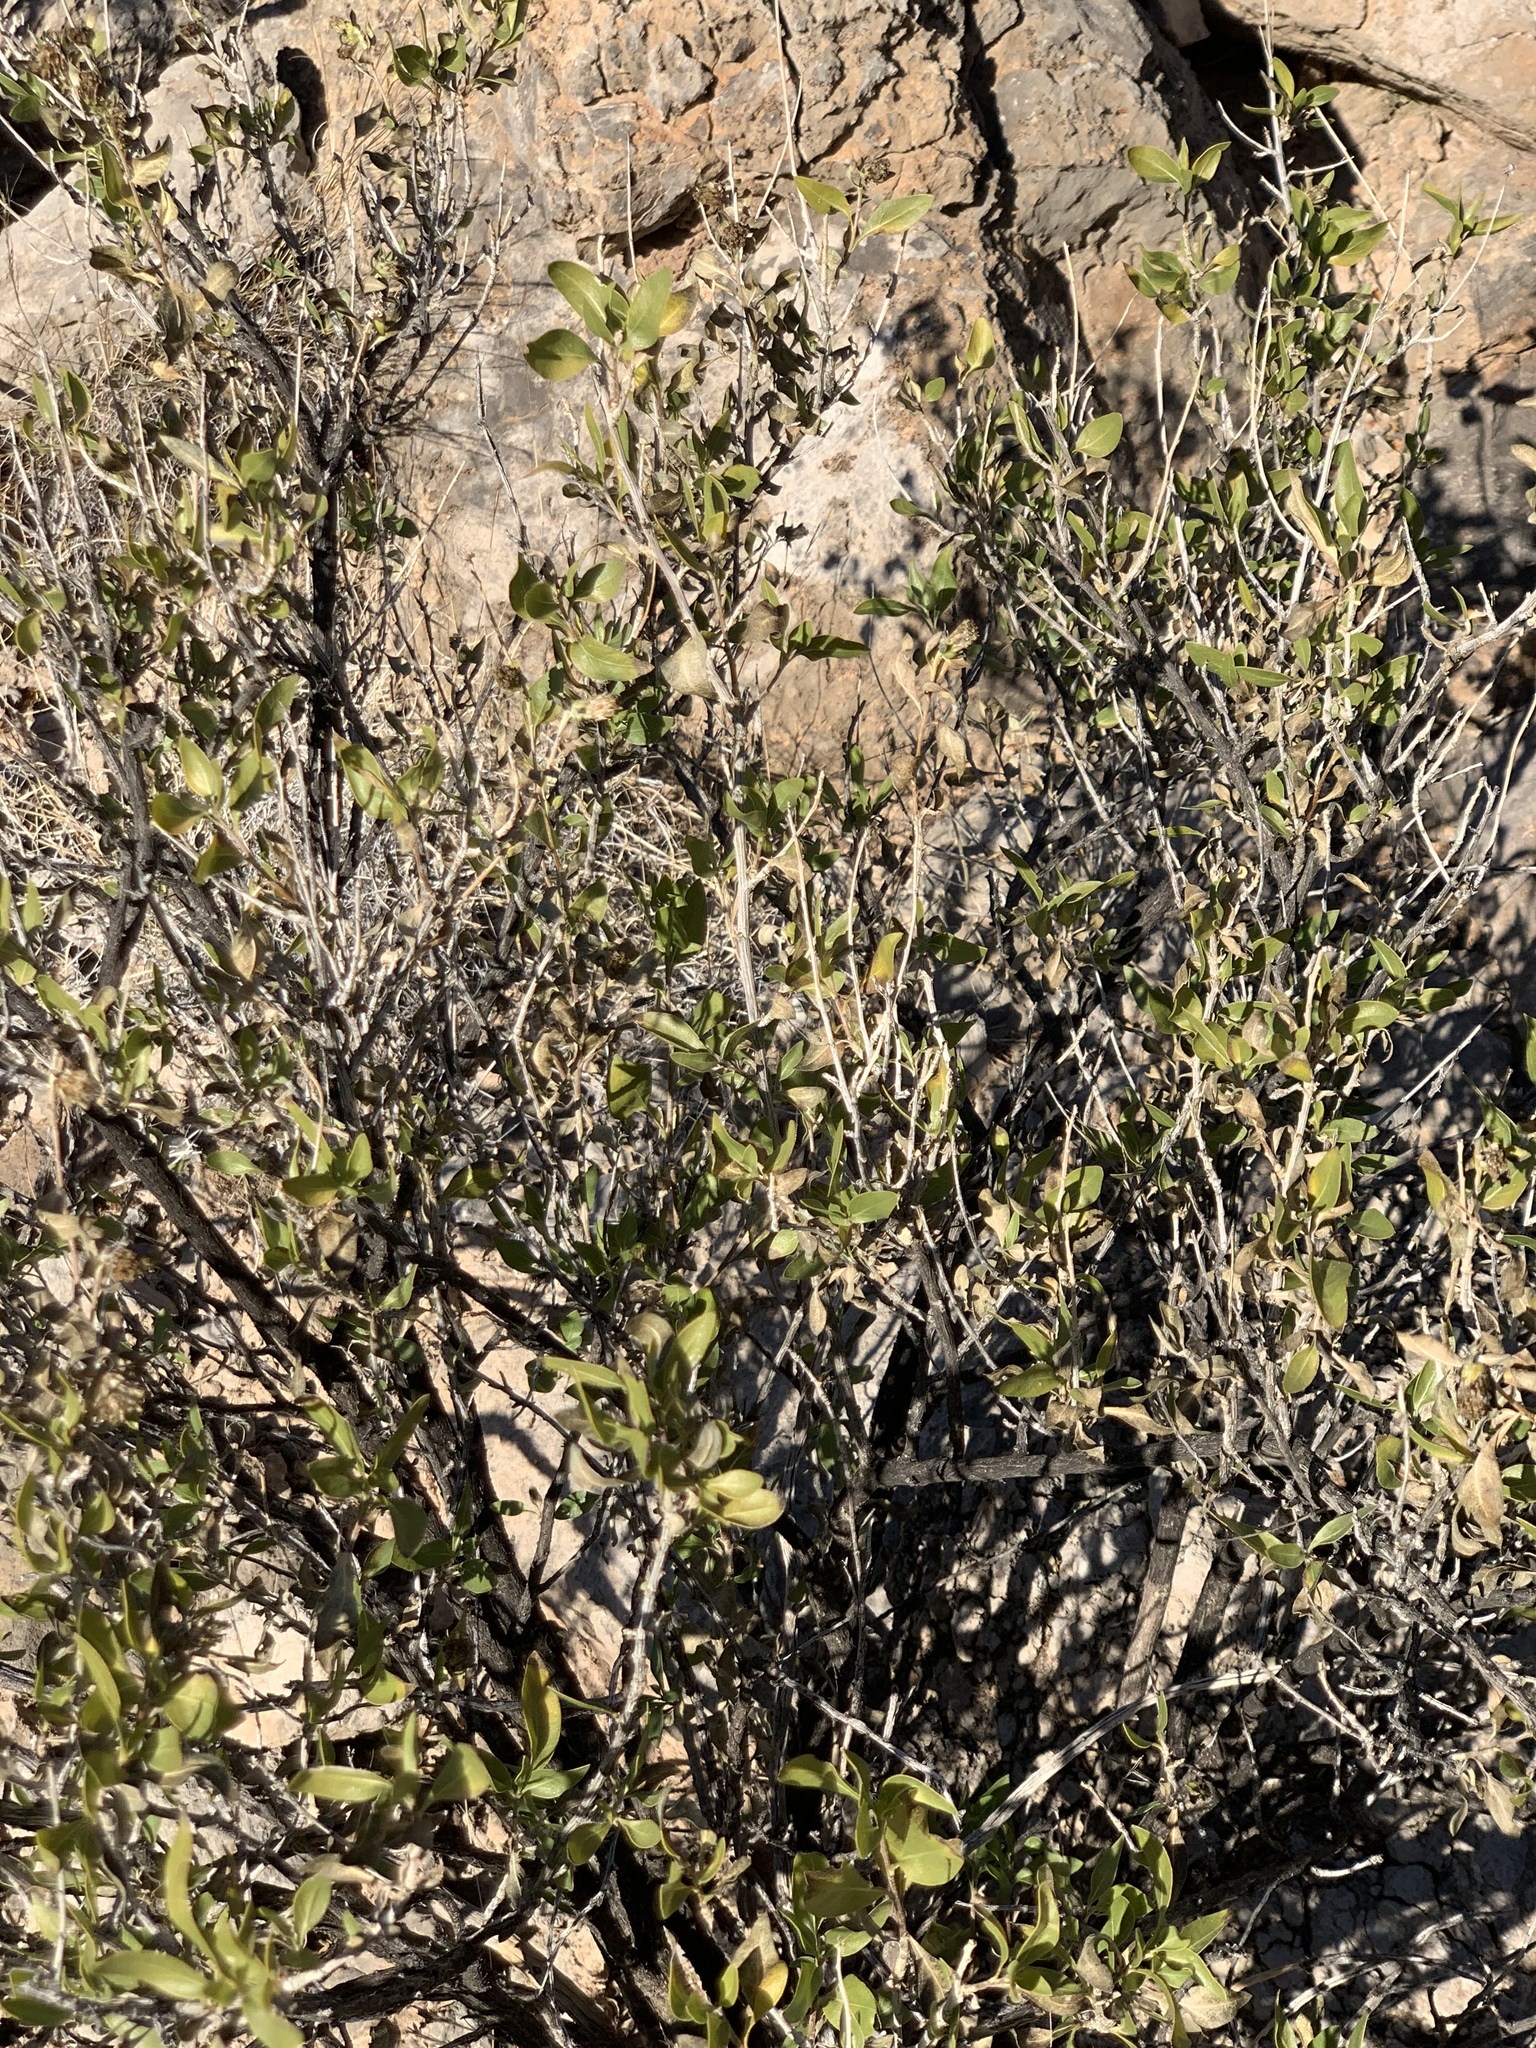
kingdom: Plantae
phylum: Tracheophyta
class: Magnoliopsida
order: Asterales
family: Asteraceae
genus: Flourensia
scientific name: Flourensia cernua
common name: Varnishbush
